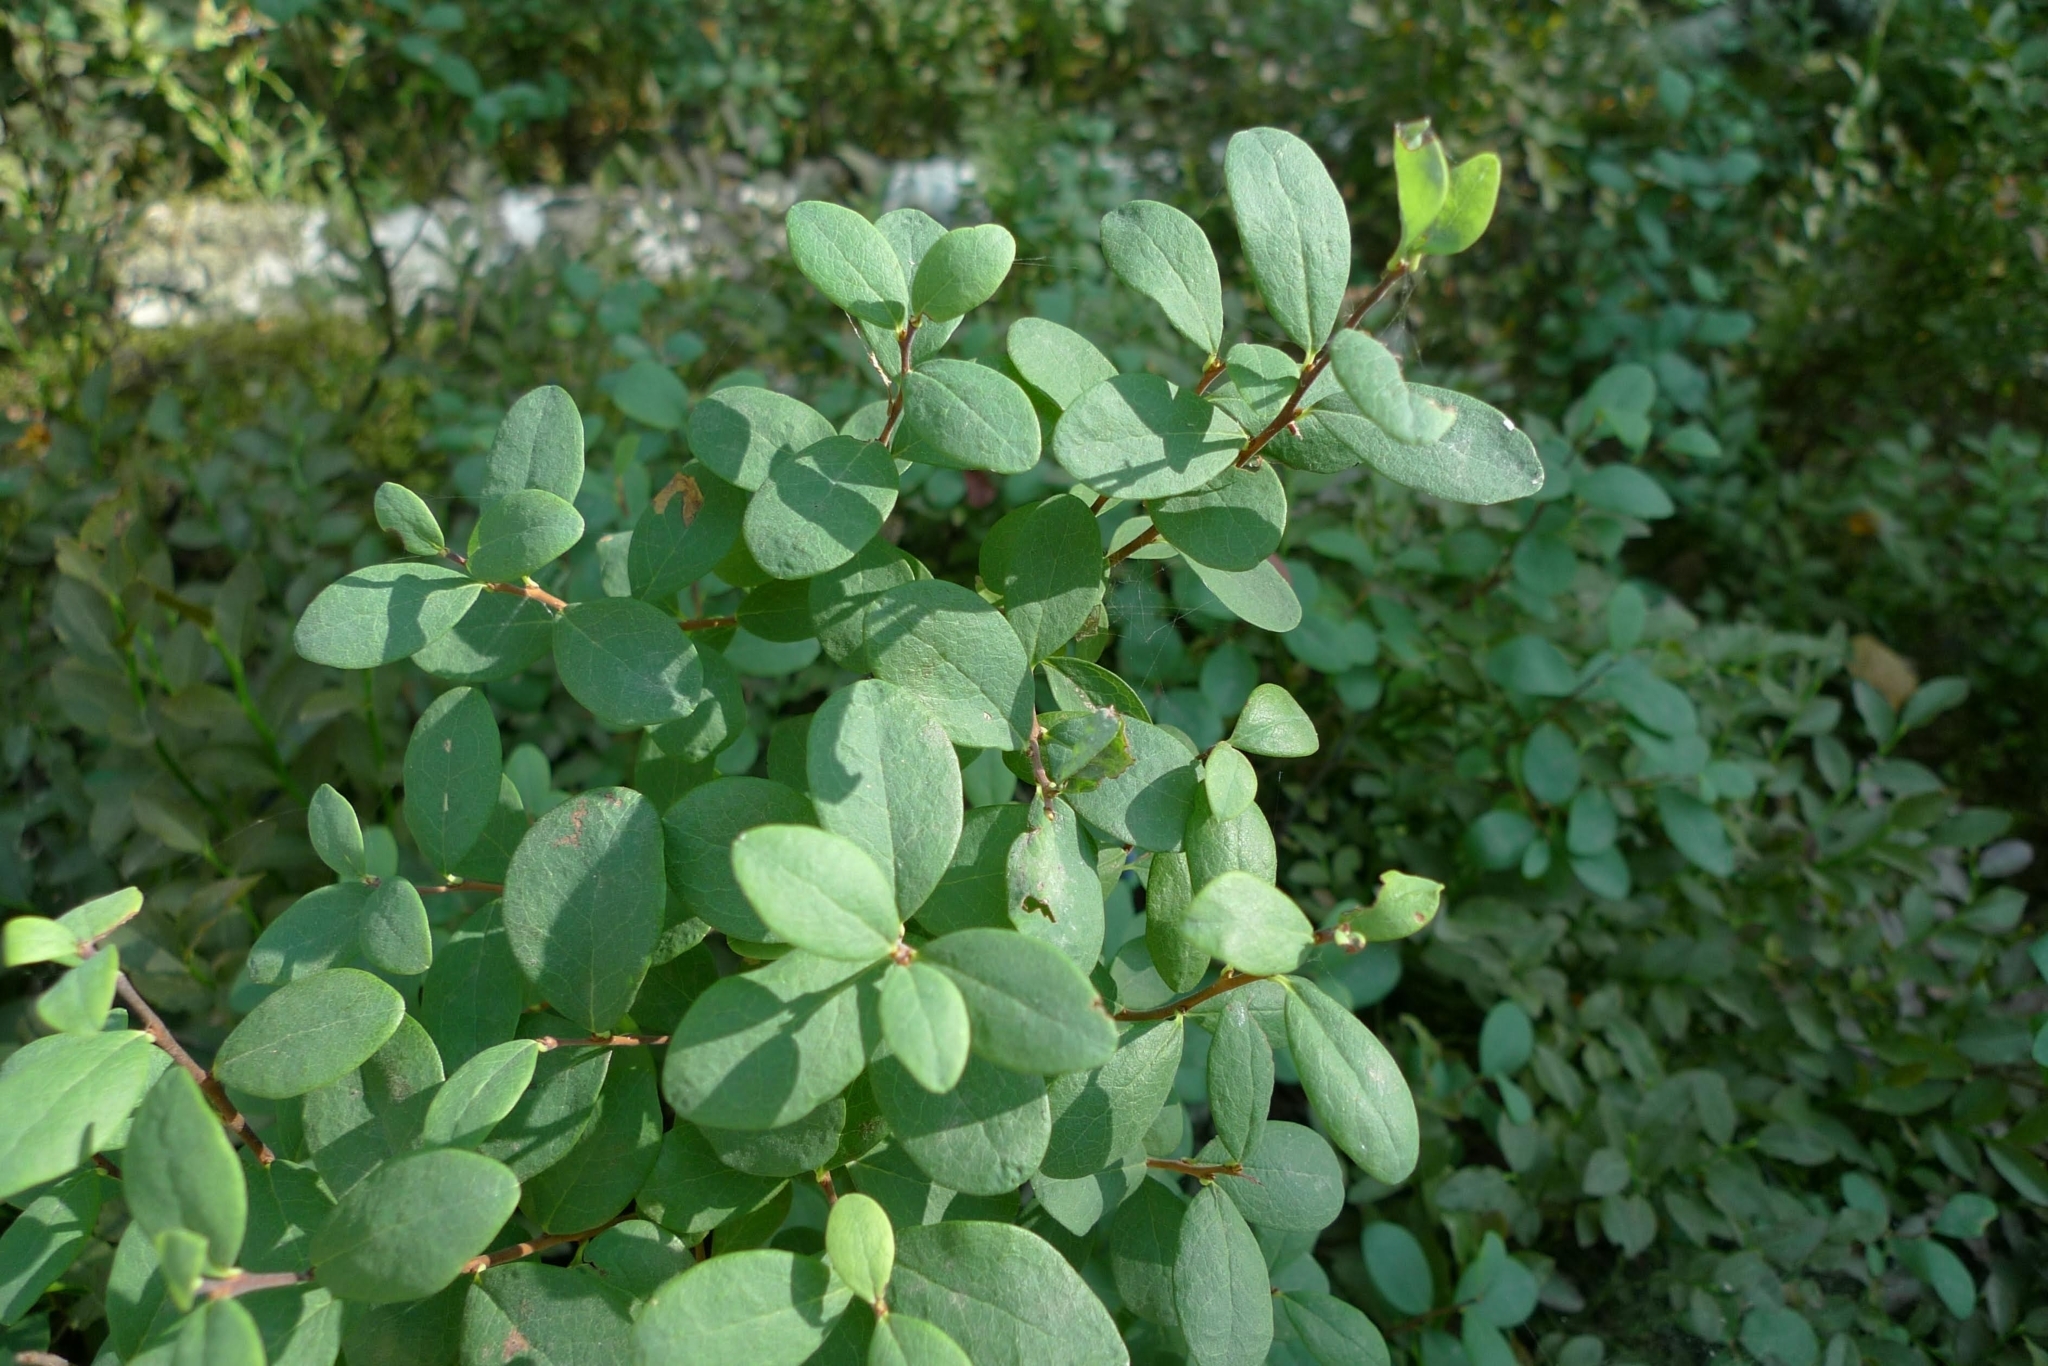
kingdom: Plantae
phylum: Tracheophyta
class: Magnoliopsida
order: Ericales
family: Ericaceae
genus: Vaccinium
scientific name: Vaccinium uliginosum
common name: Bog bilberry
